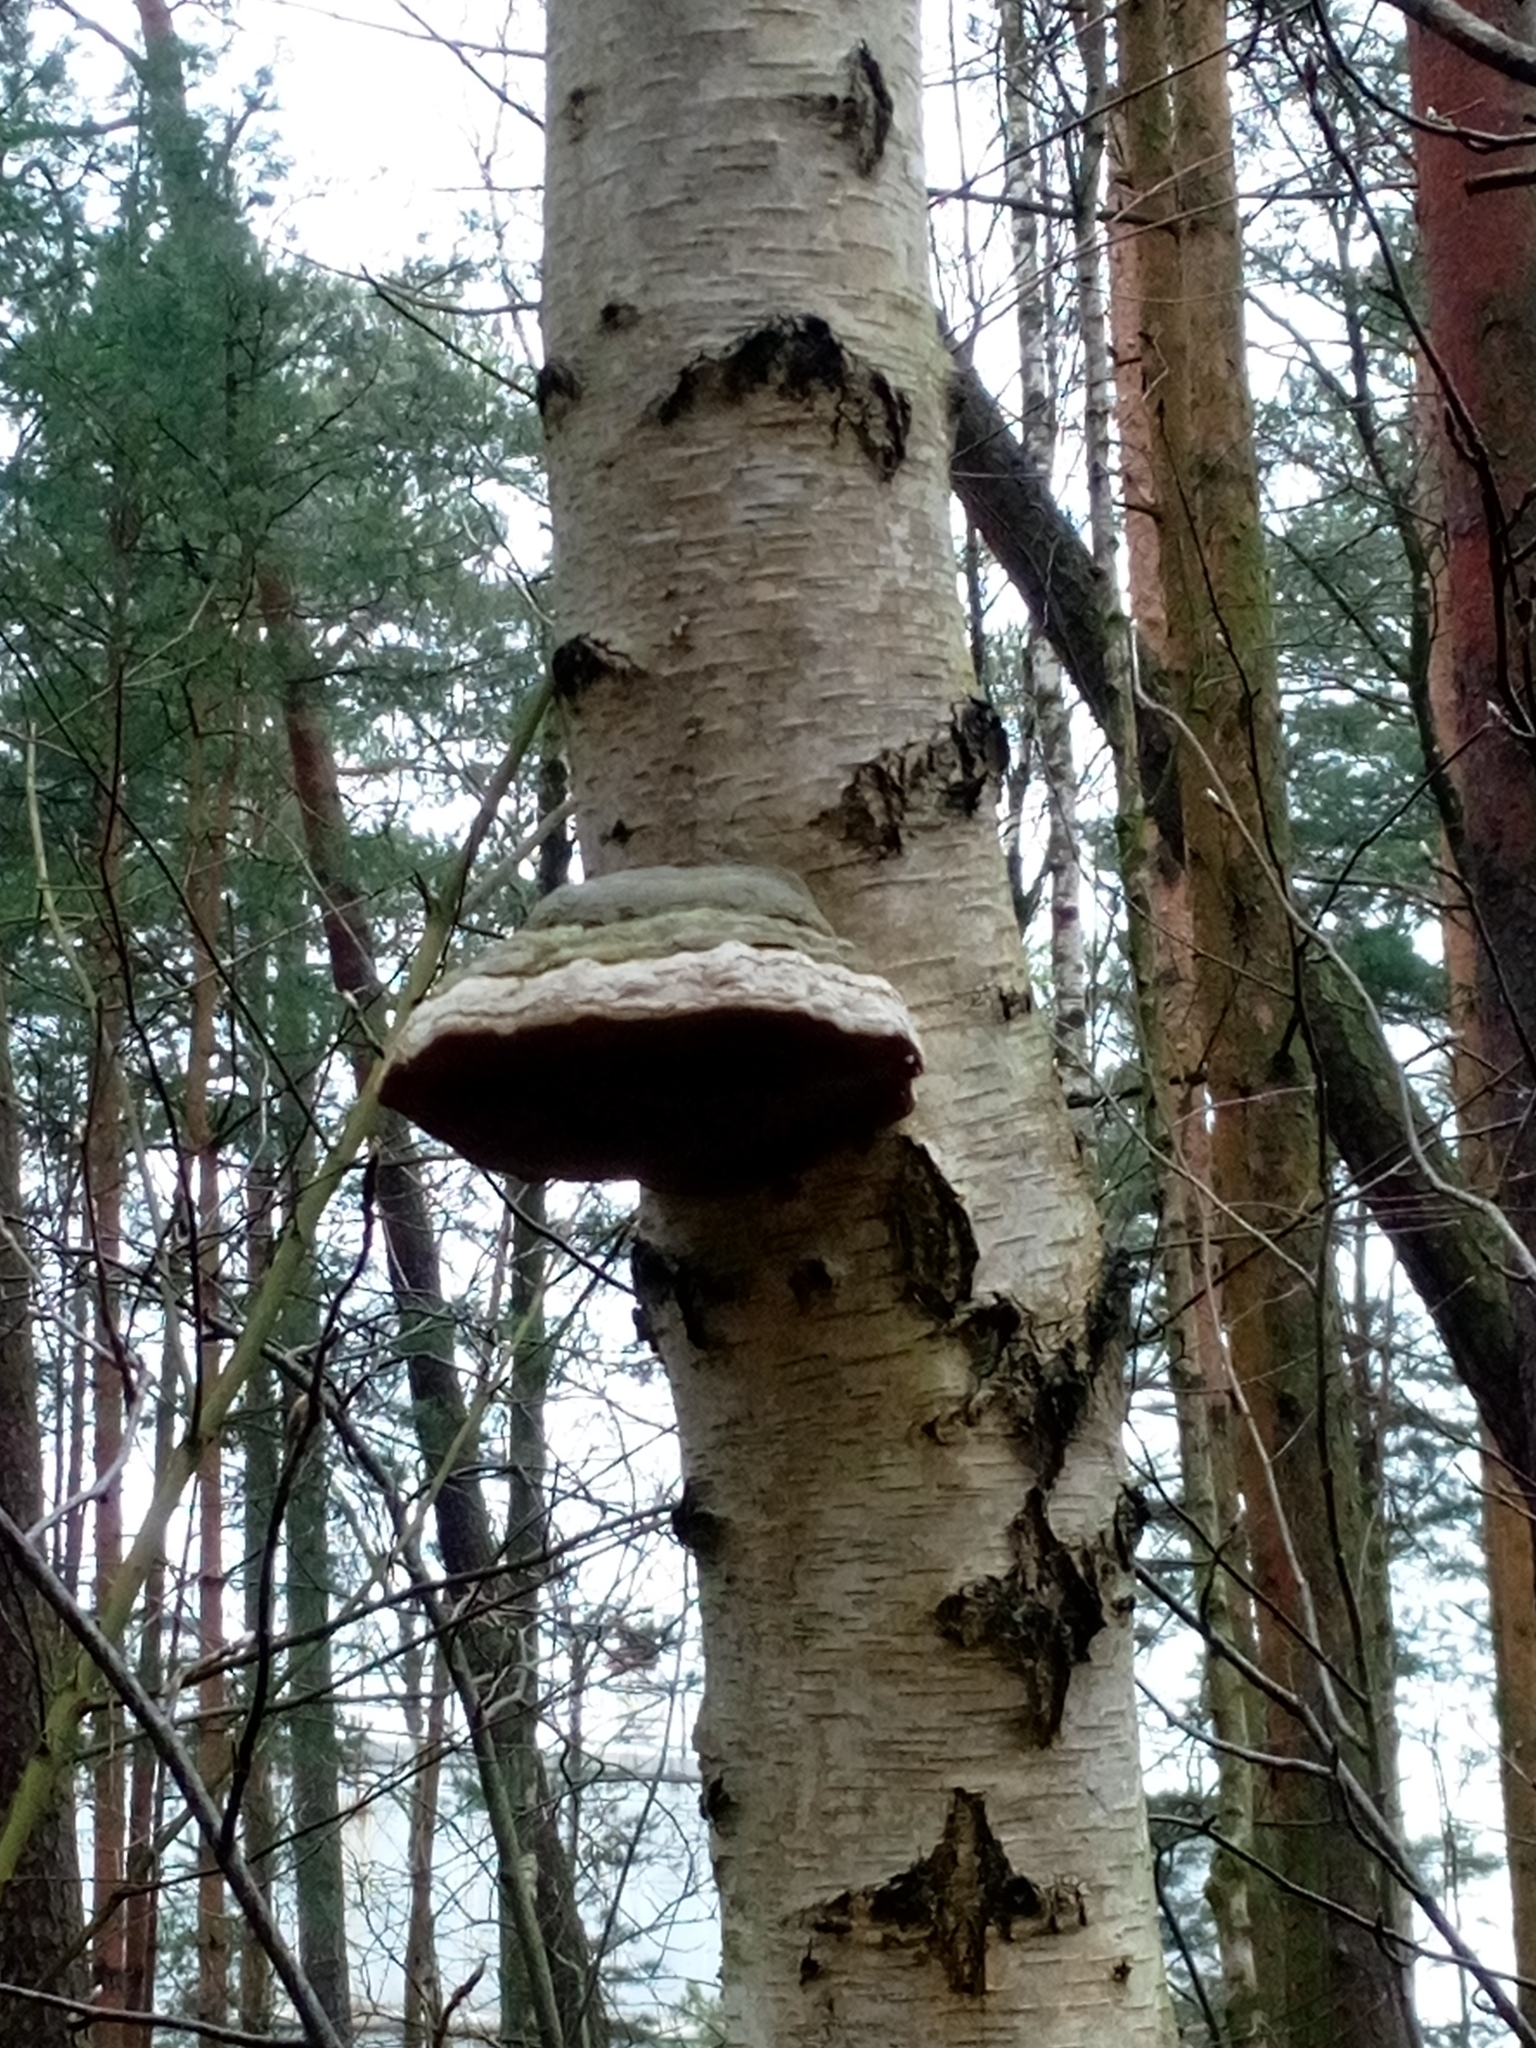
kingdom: Fungi
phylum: Basidiomycota
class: Agaricomycetes
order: Polyporales
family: Polyporaceae
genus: Fomes
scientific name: Fomes fomentarius
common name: Hoof fungus
